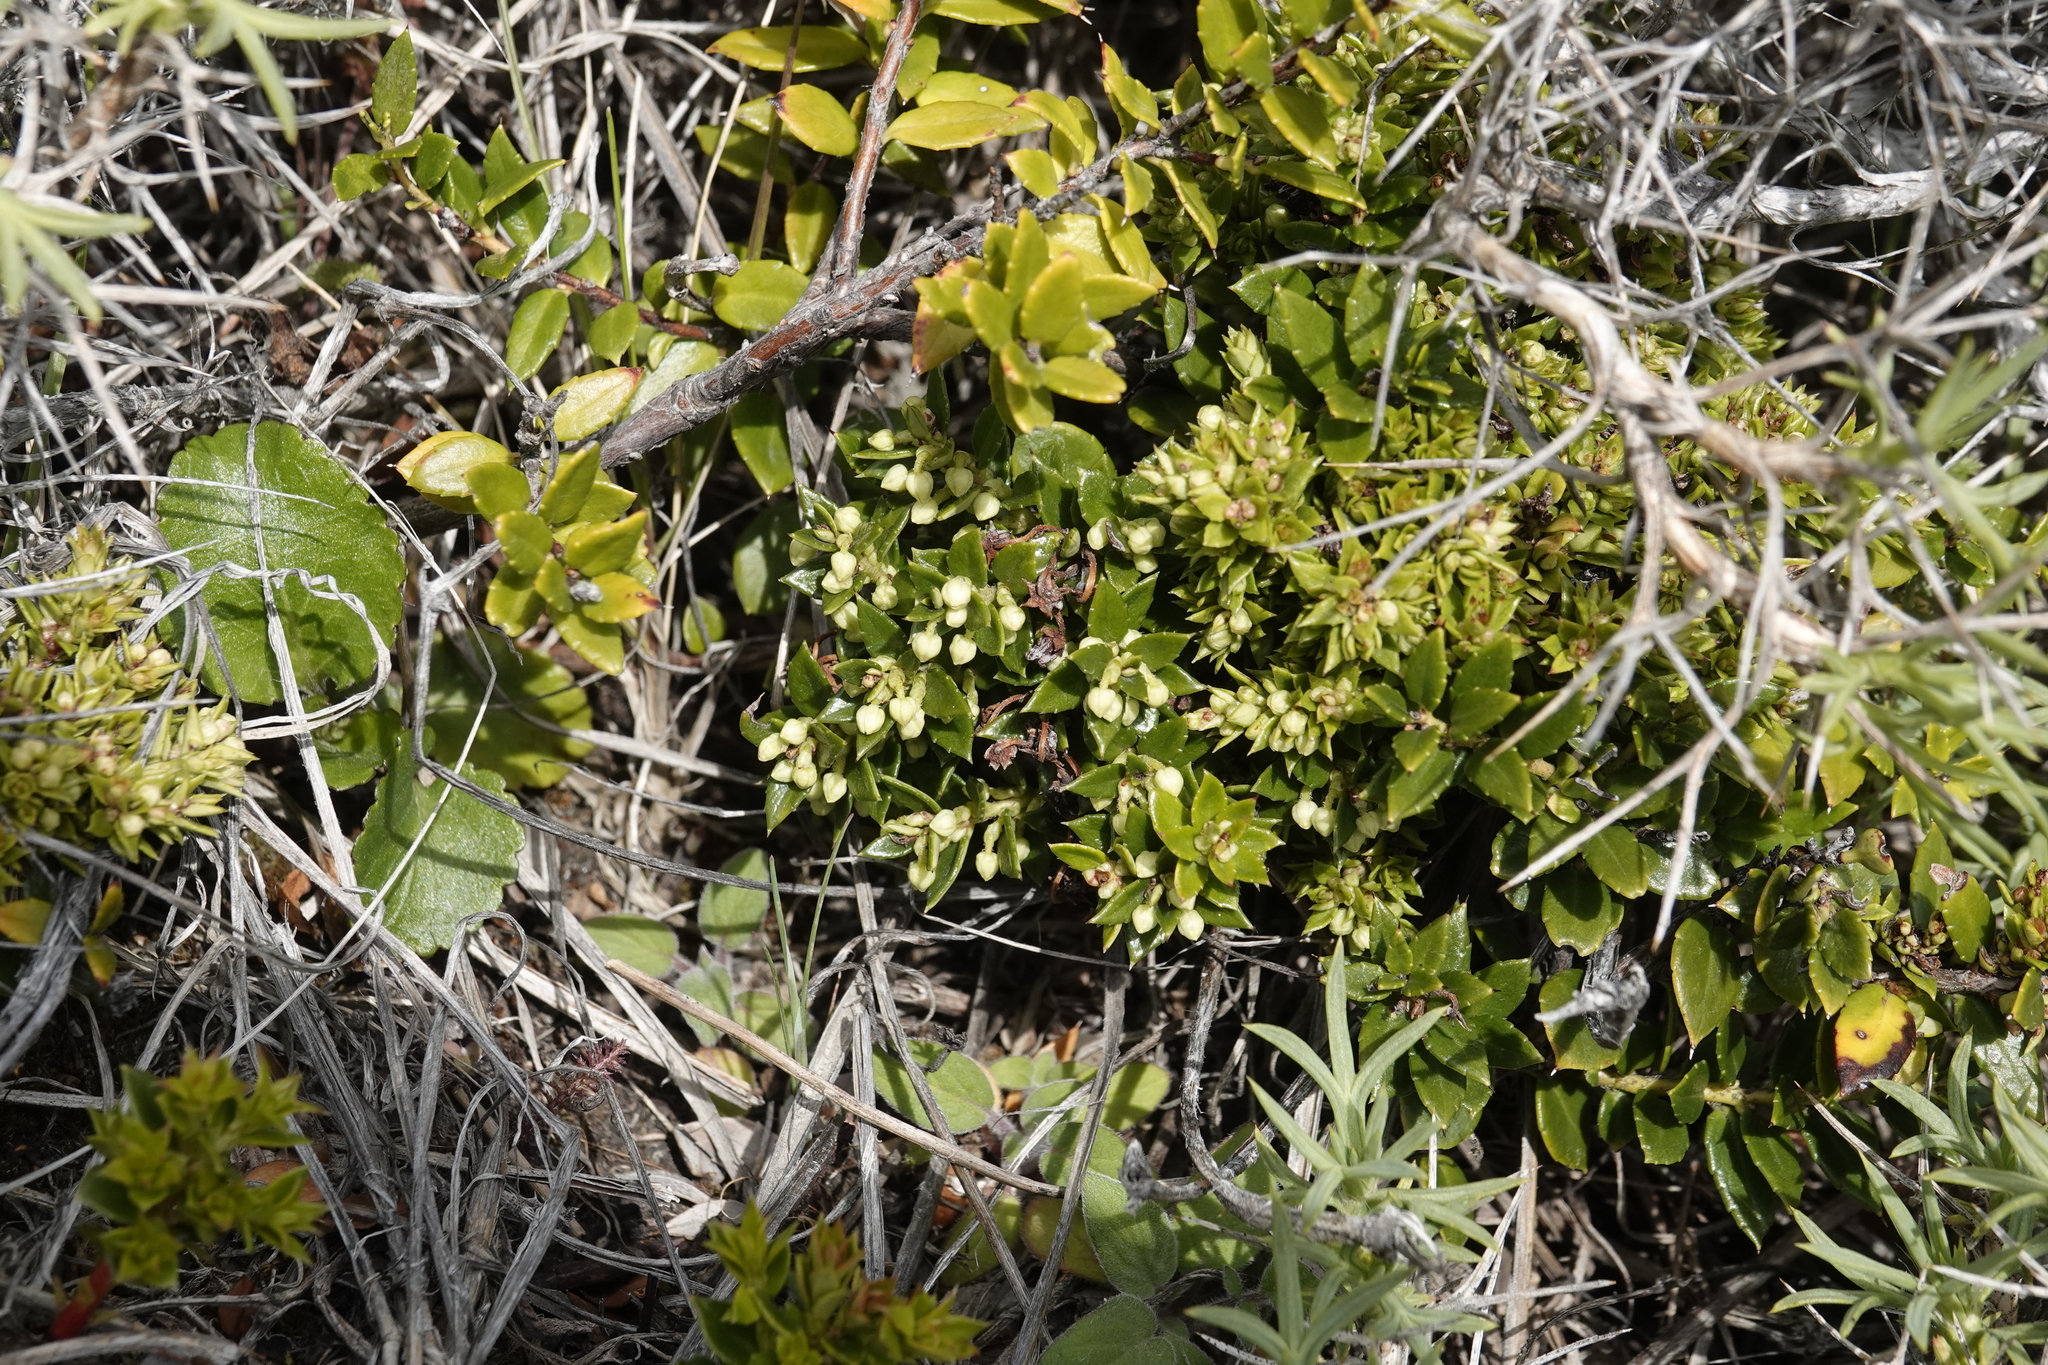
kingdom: Plantae
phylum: Tracheophyta
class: Magnoliopsida
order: Ericales
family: Ericaceae
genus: Gaultheria
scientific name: Gaultheria mucronata
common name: Prickly heath
